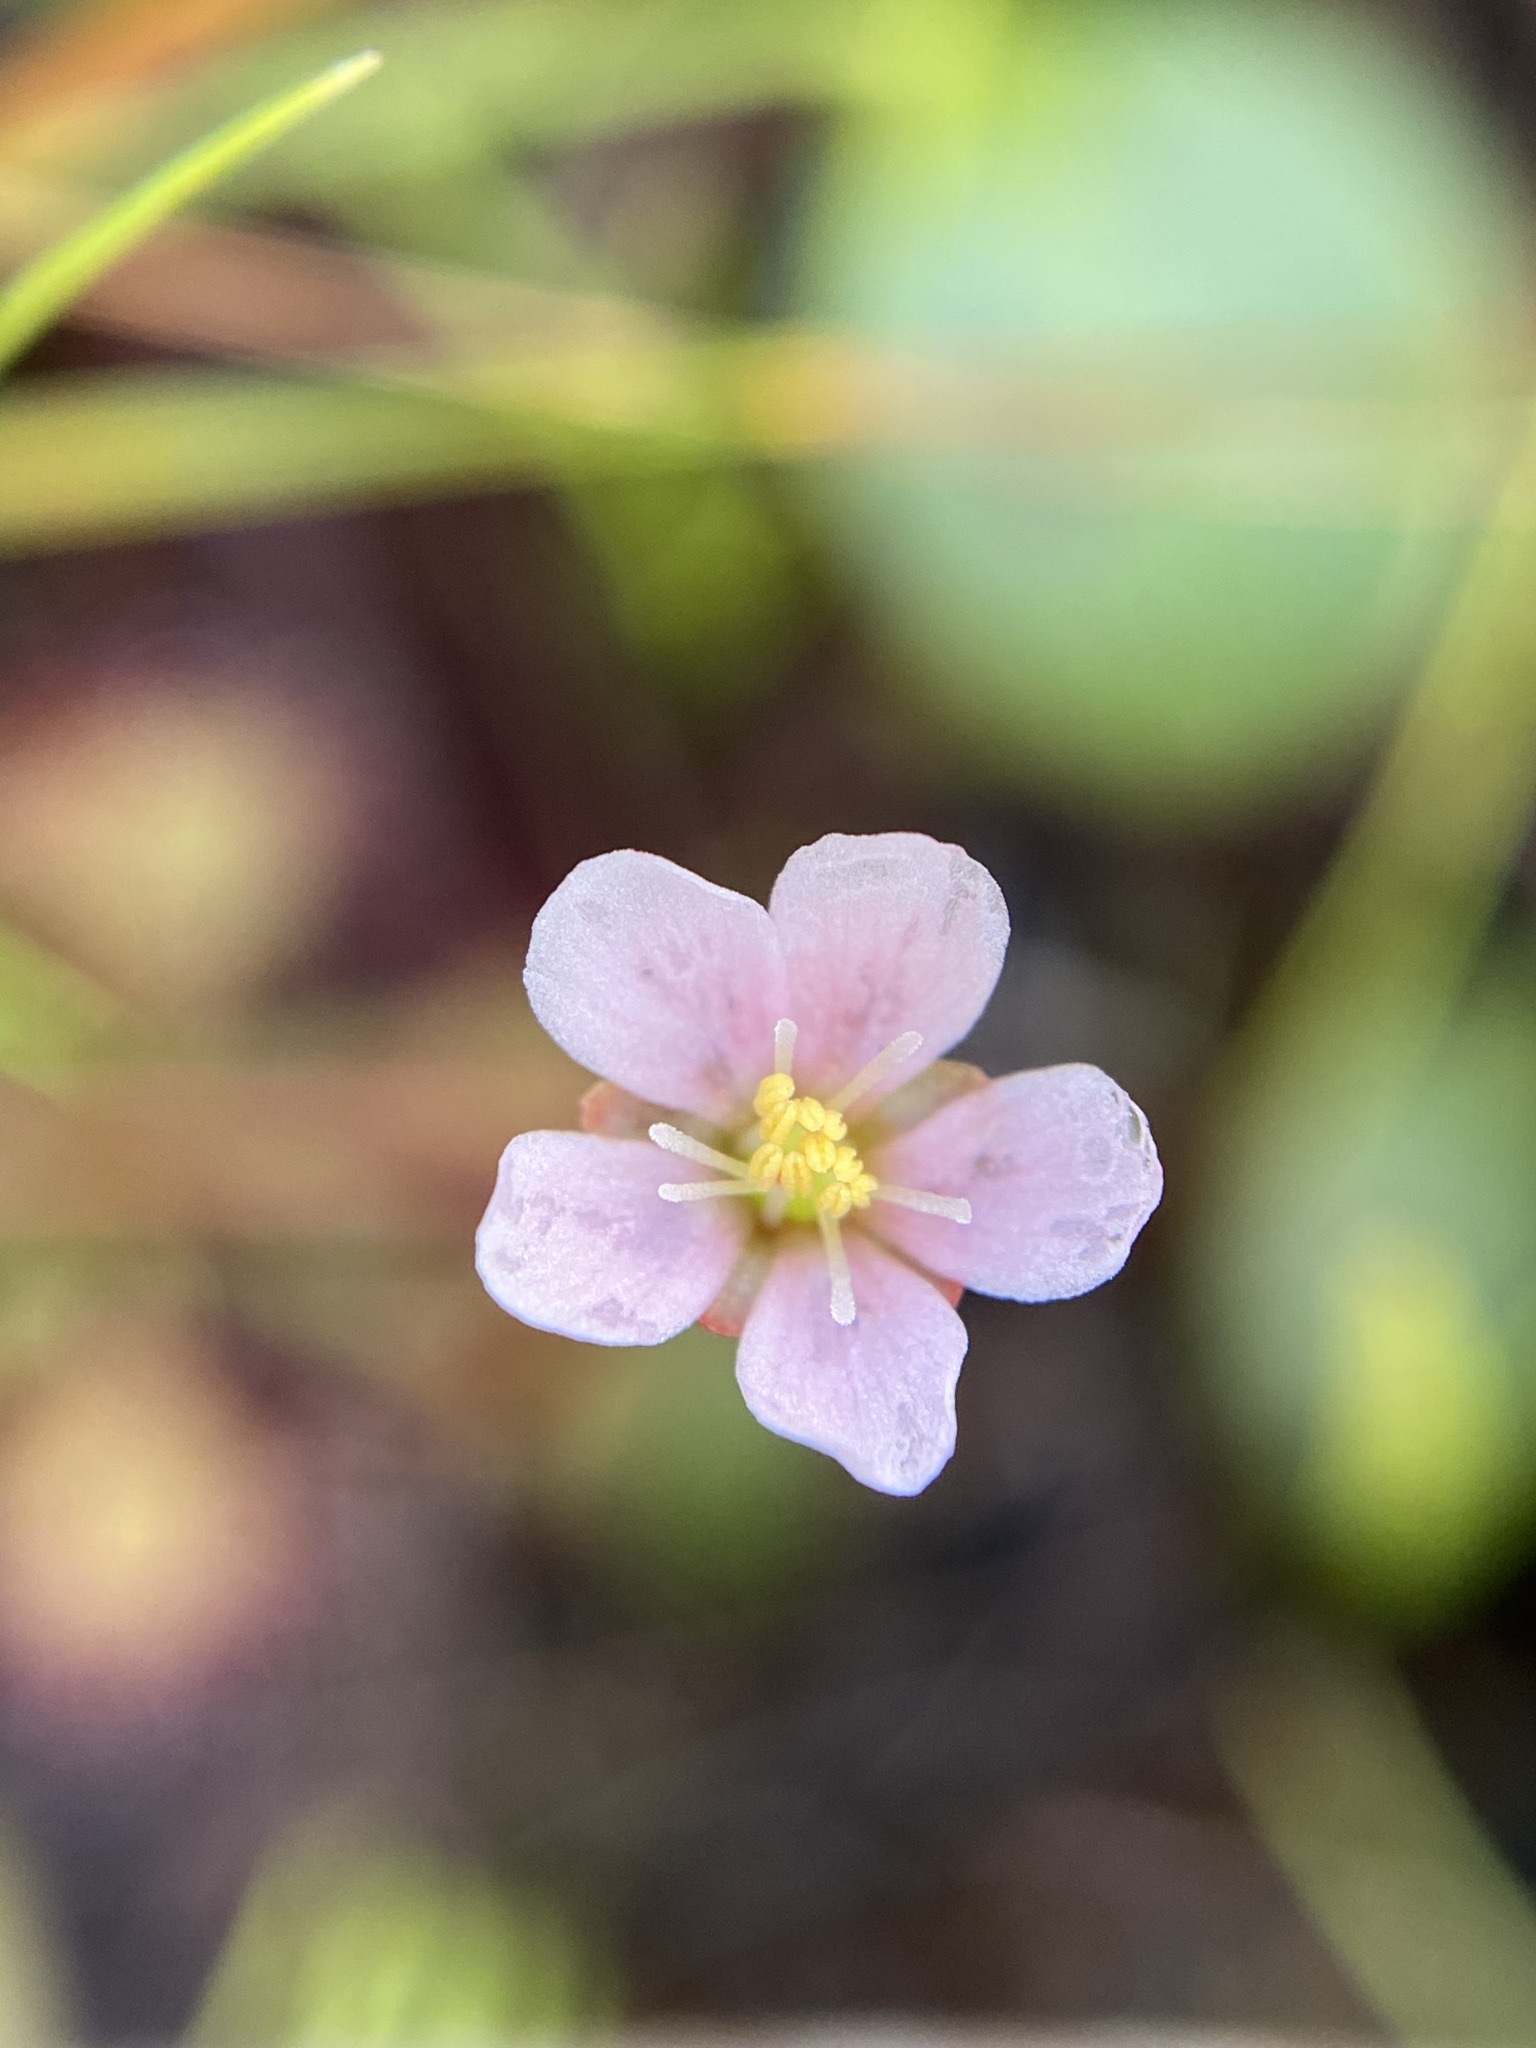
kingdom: Plantae
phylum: Tracheophyta
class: Magnoliopsida
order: Caryophyllales
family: Droseraceae
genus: Drosera
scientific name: Drosera capillaris
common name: Pink sundew
